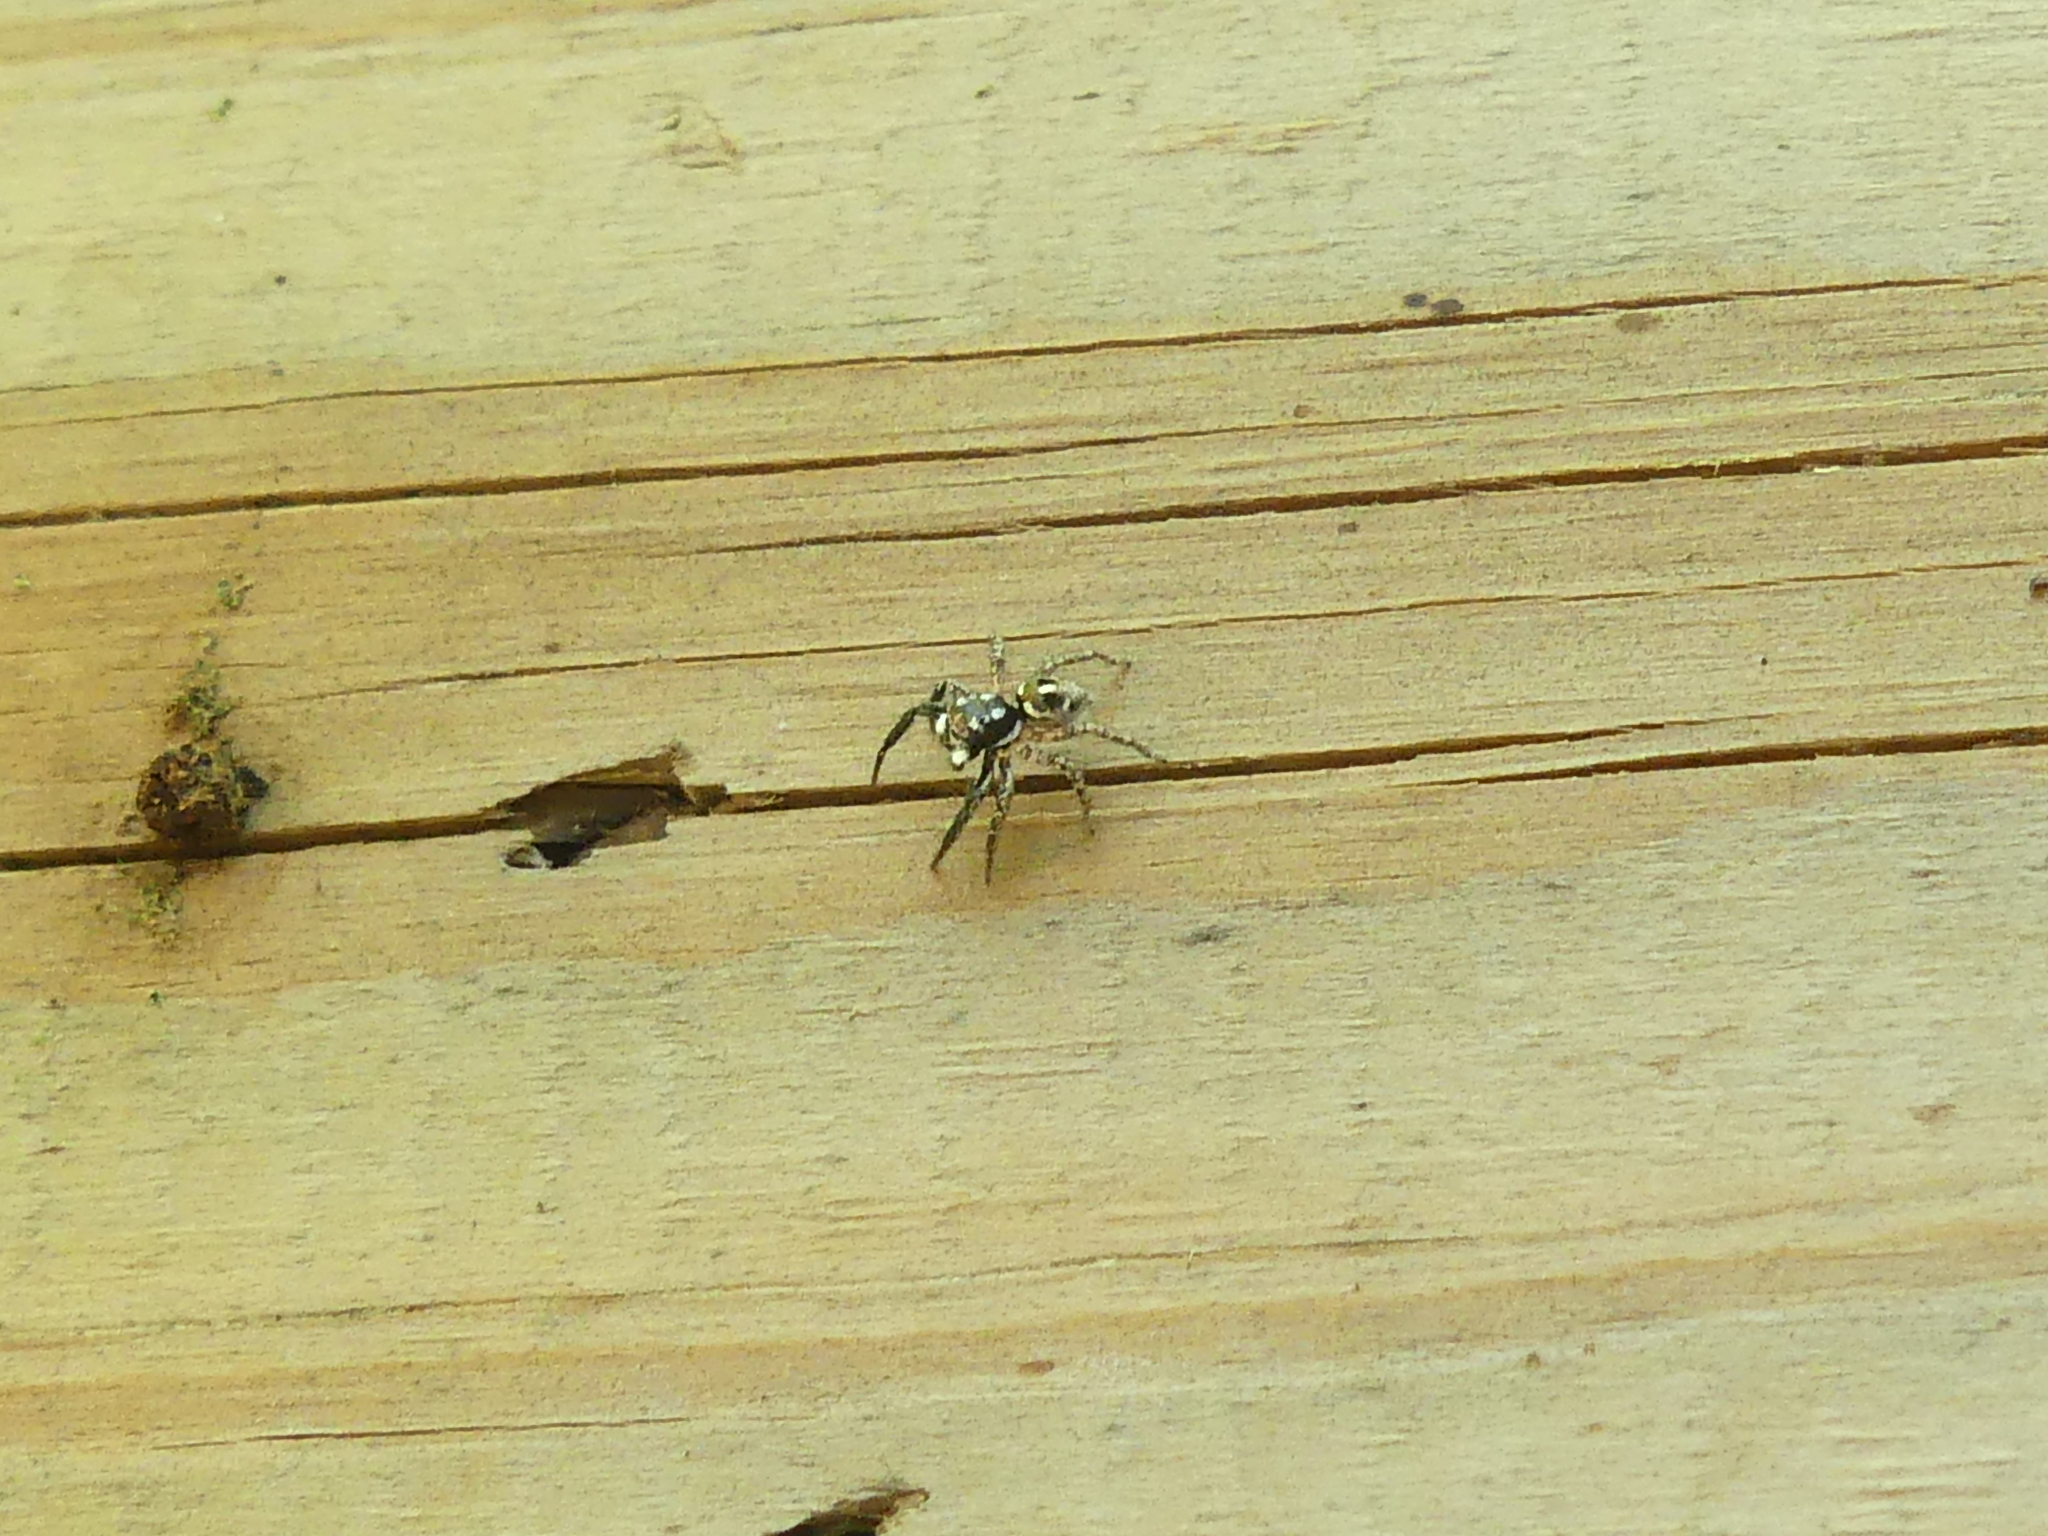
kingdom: Animalia
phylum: Arthropoda
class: Arachnida
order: Araneae
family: Salticidae
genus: Anasaitis
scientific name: Anasaitis canosa
